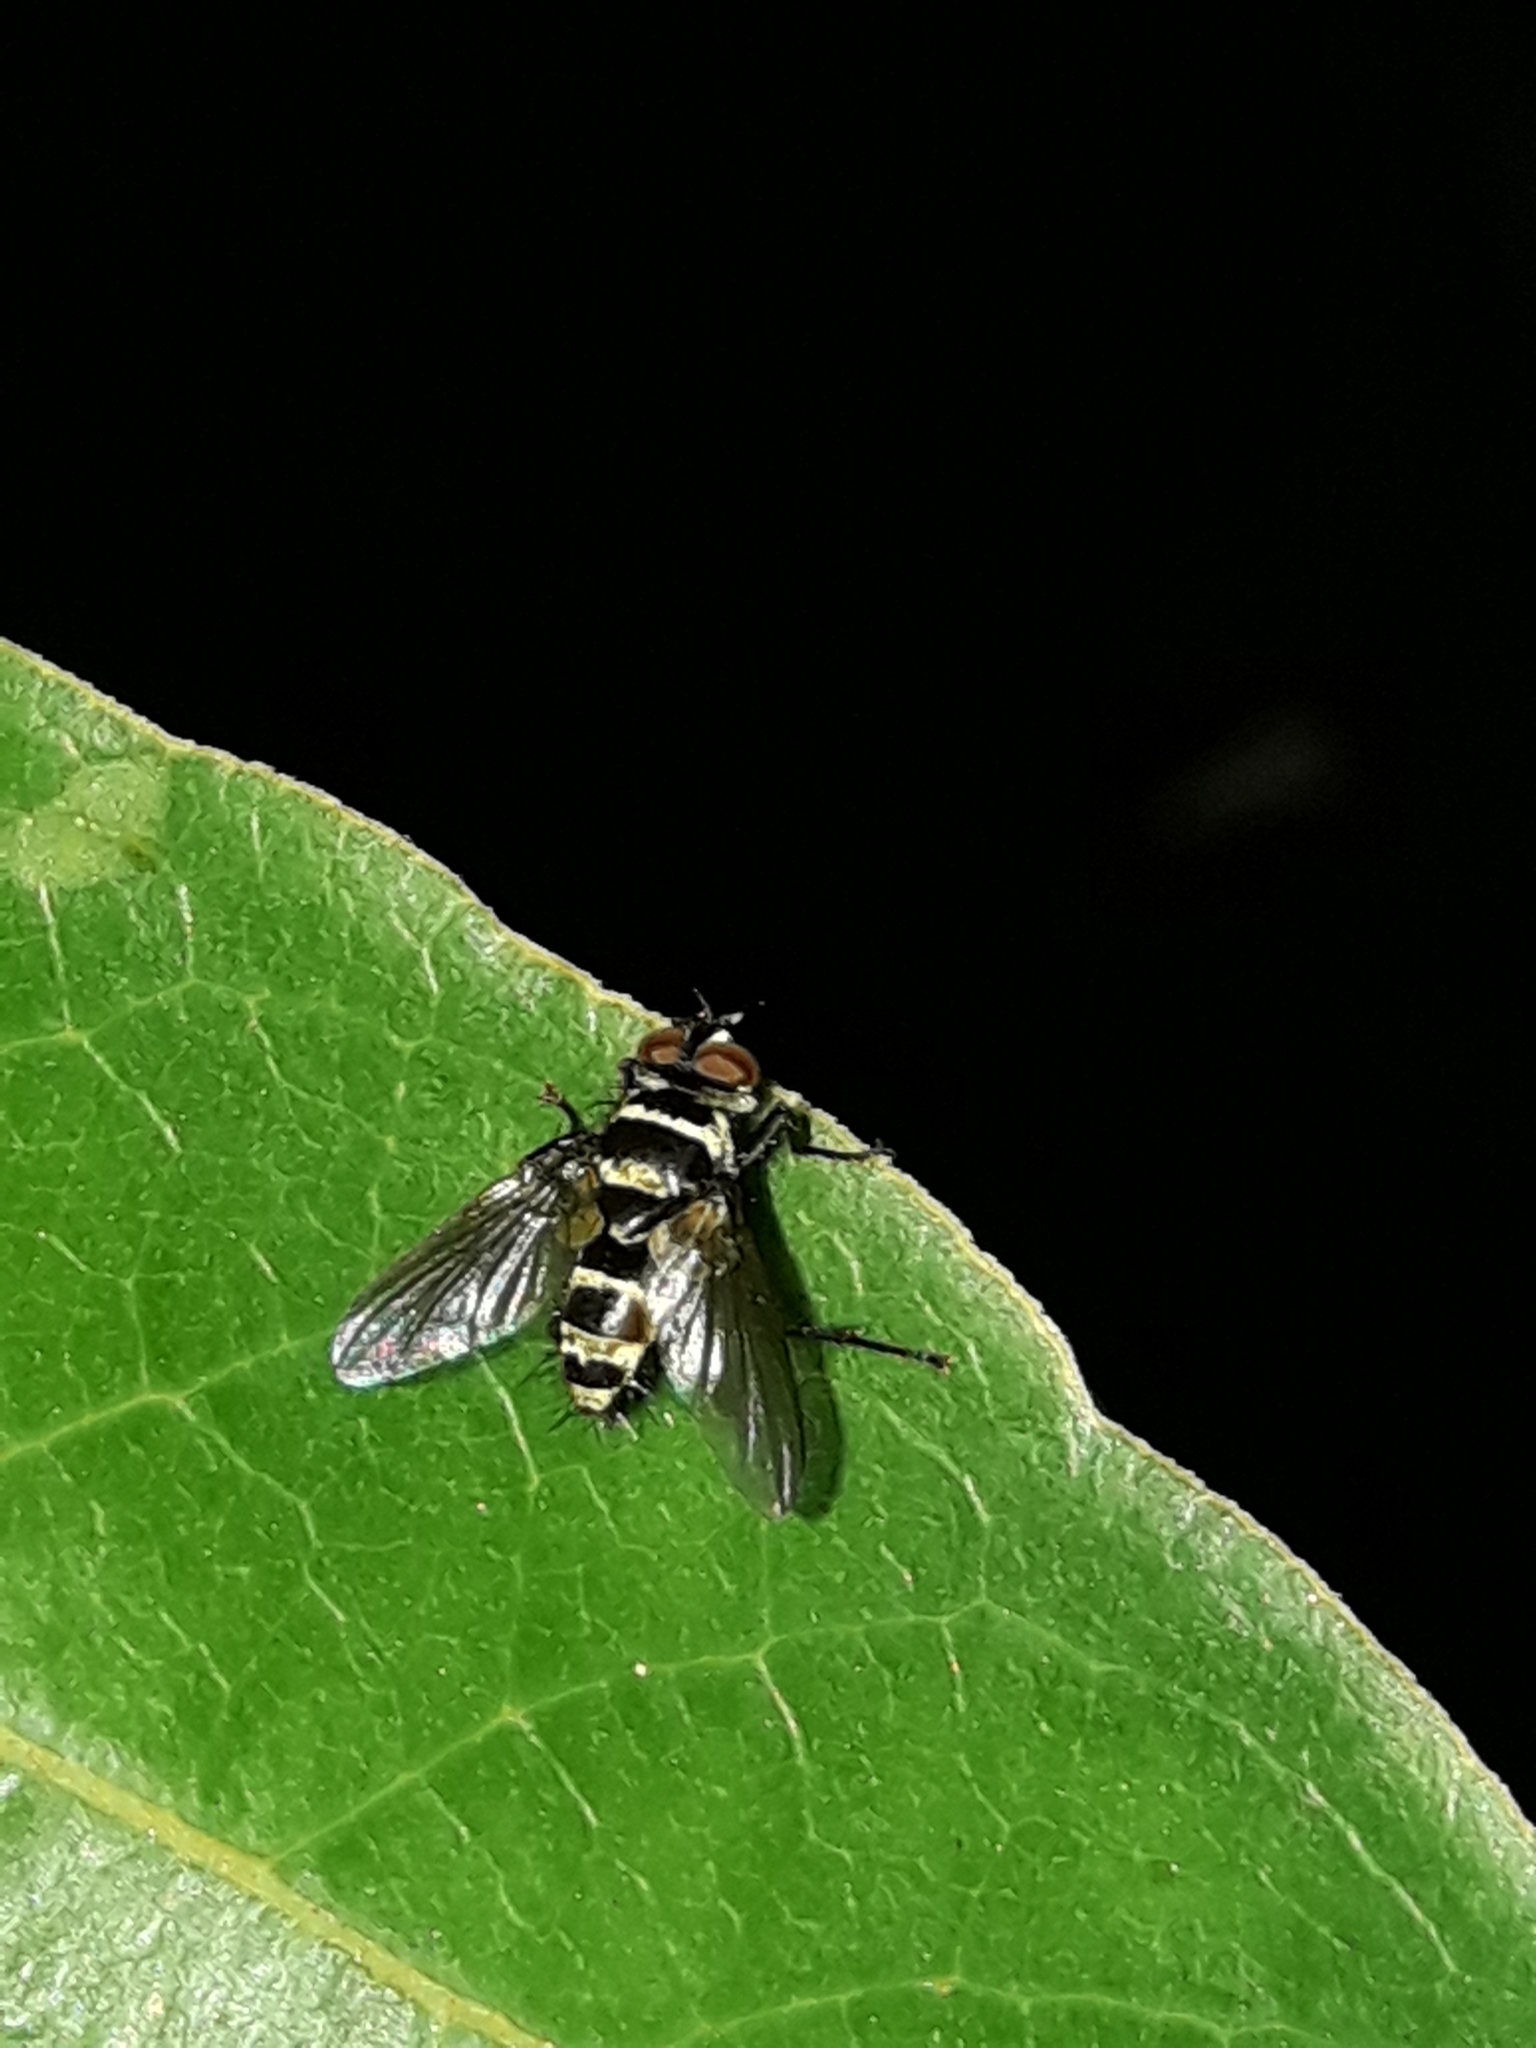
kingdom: Animalia
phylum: Arthropoda
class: Insecta
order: Diptera
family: Tachinidae
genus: Trigonospila
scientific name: Trigonospila brevifacies
